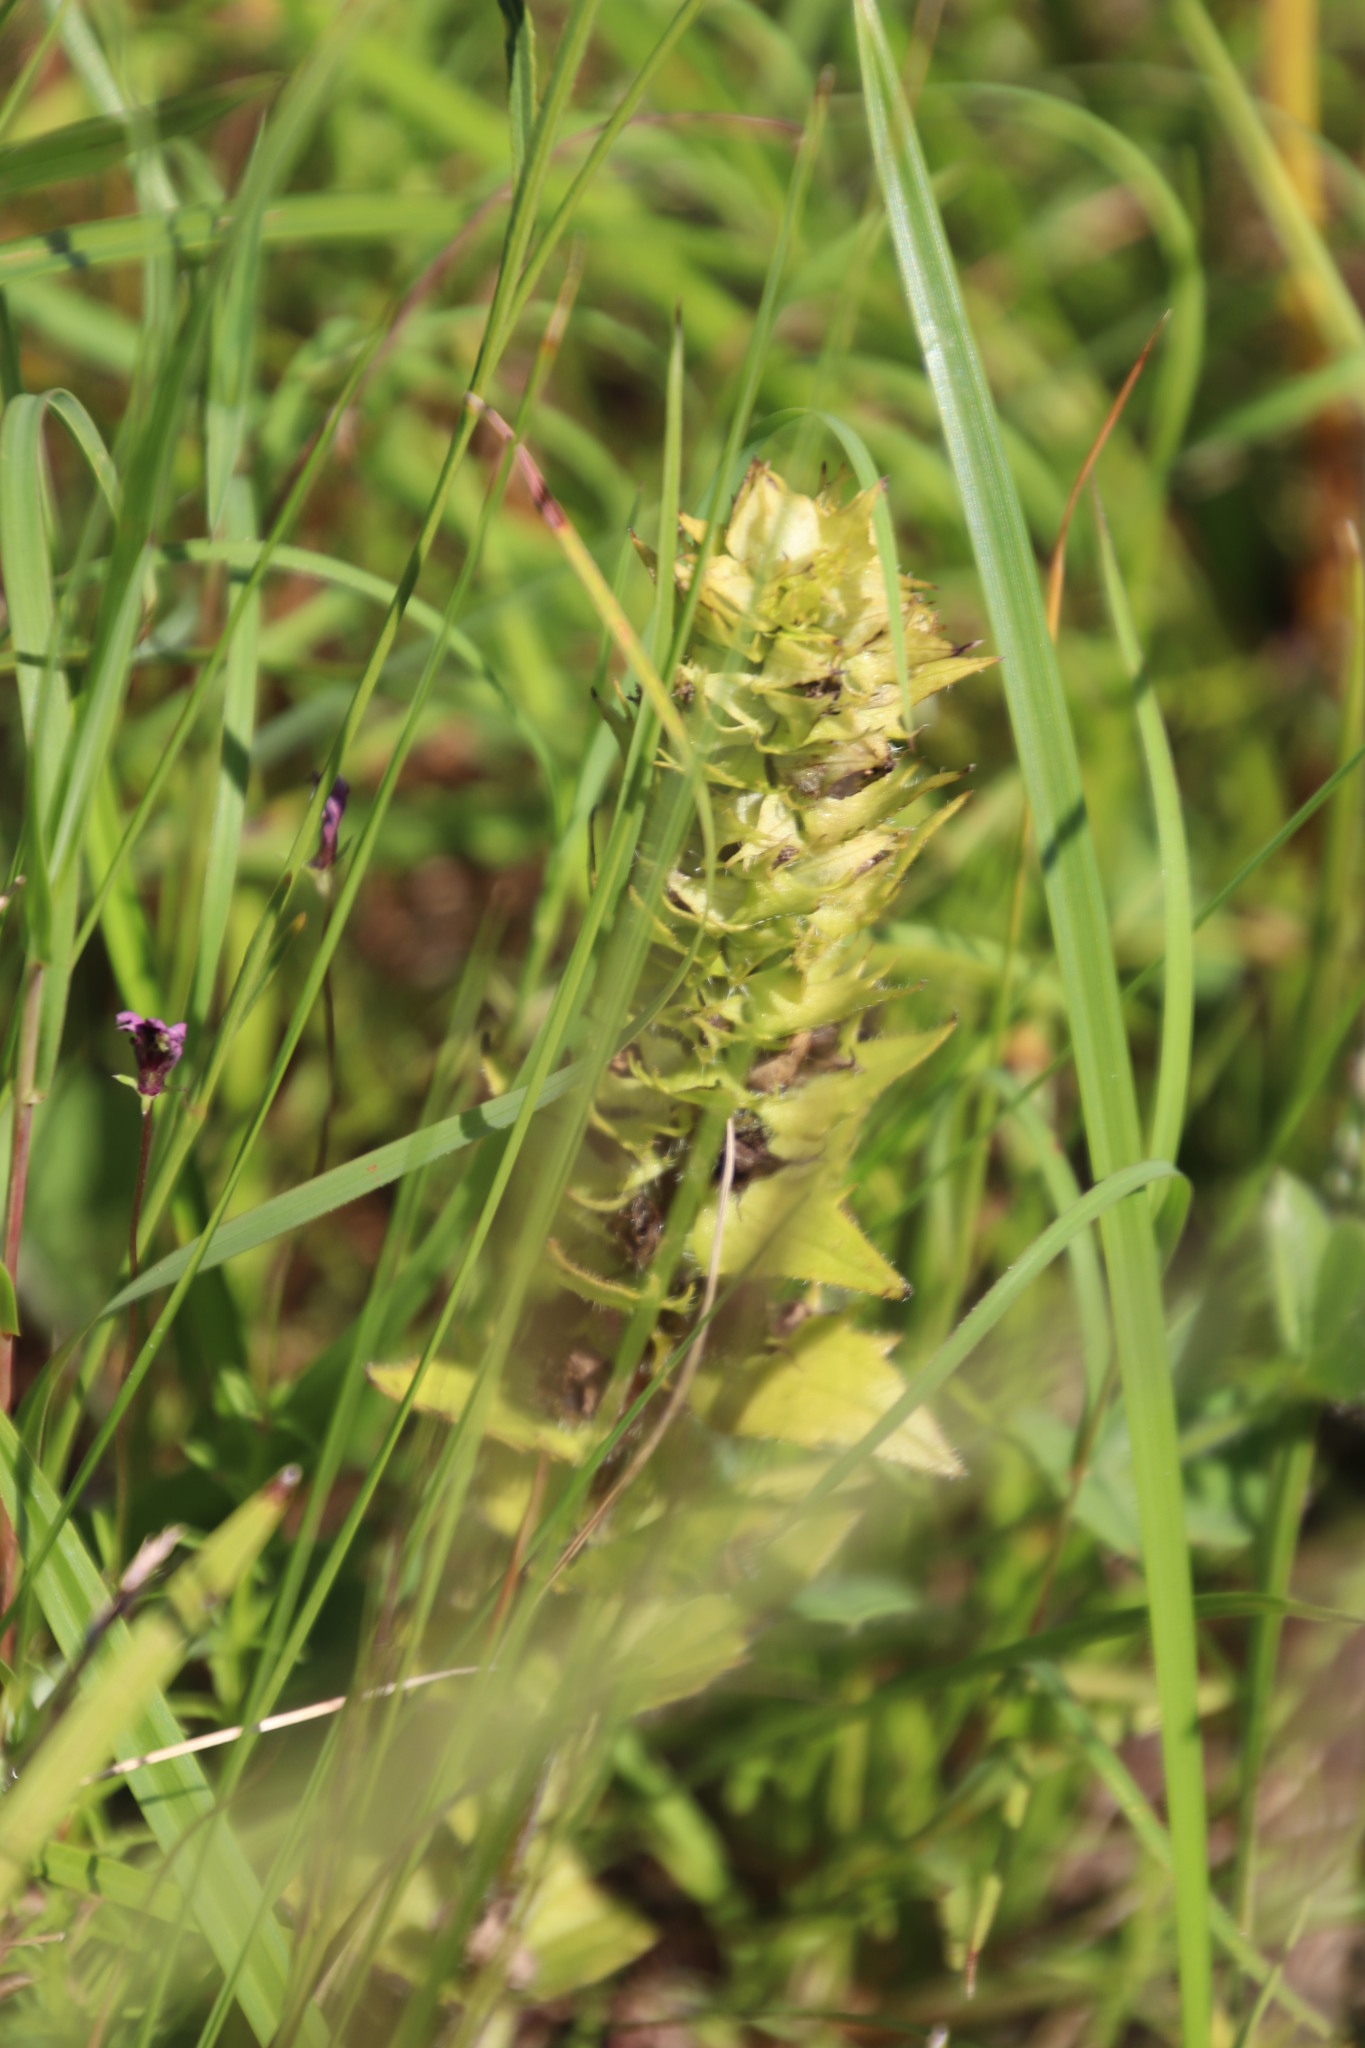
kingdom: Plantae
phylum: Tracheophyta
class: Magnoliopsida
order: Lamiales
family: Orobanchaceae
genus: Alectra
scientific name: Alectra sessiliflora
